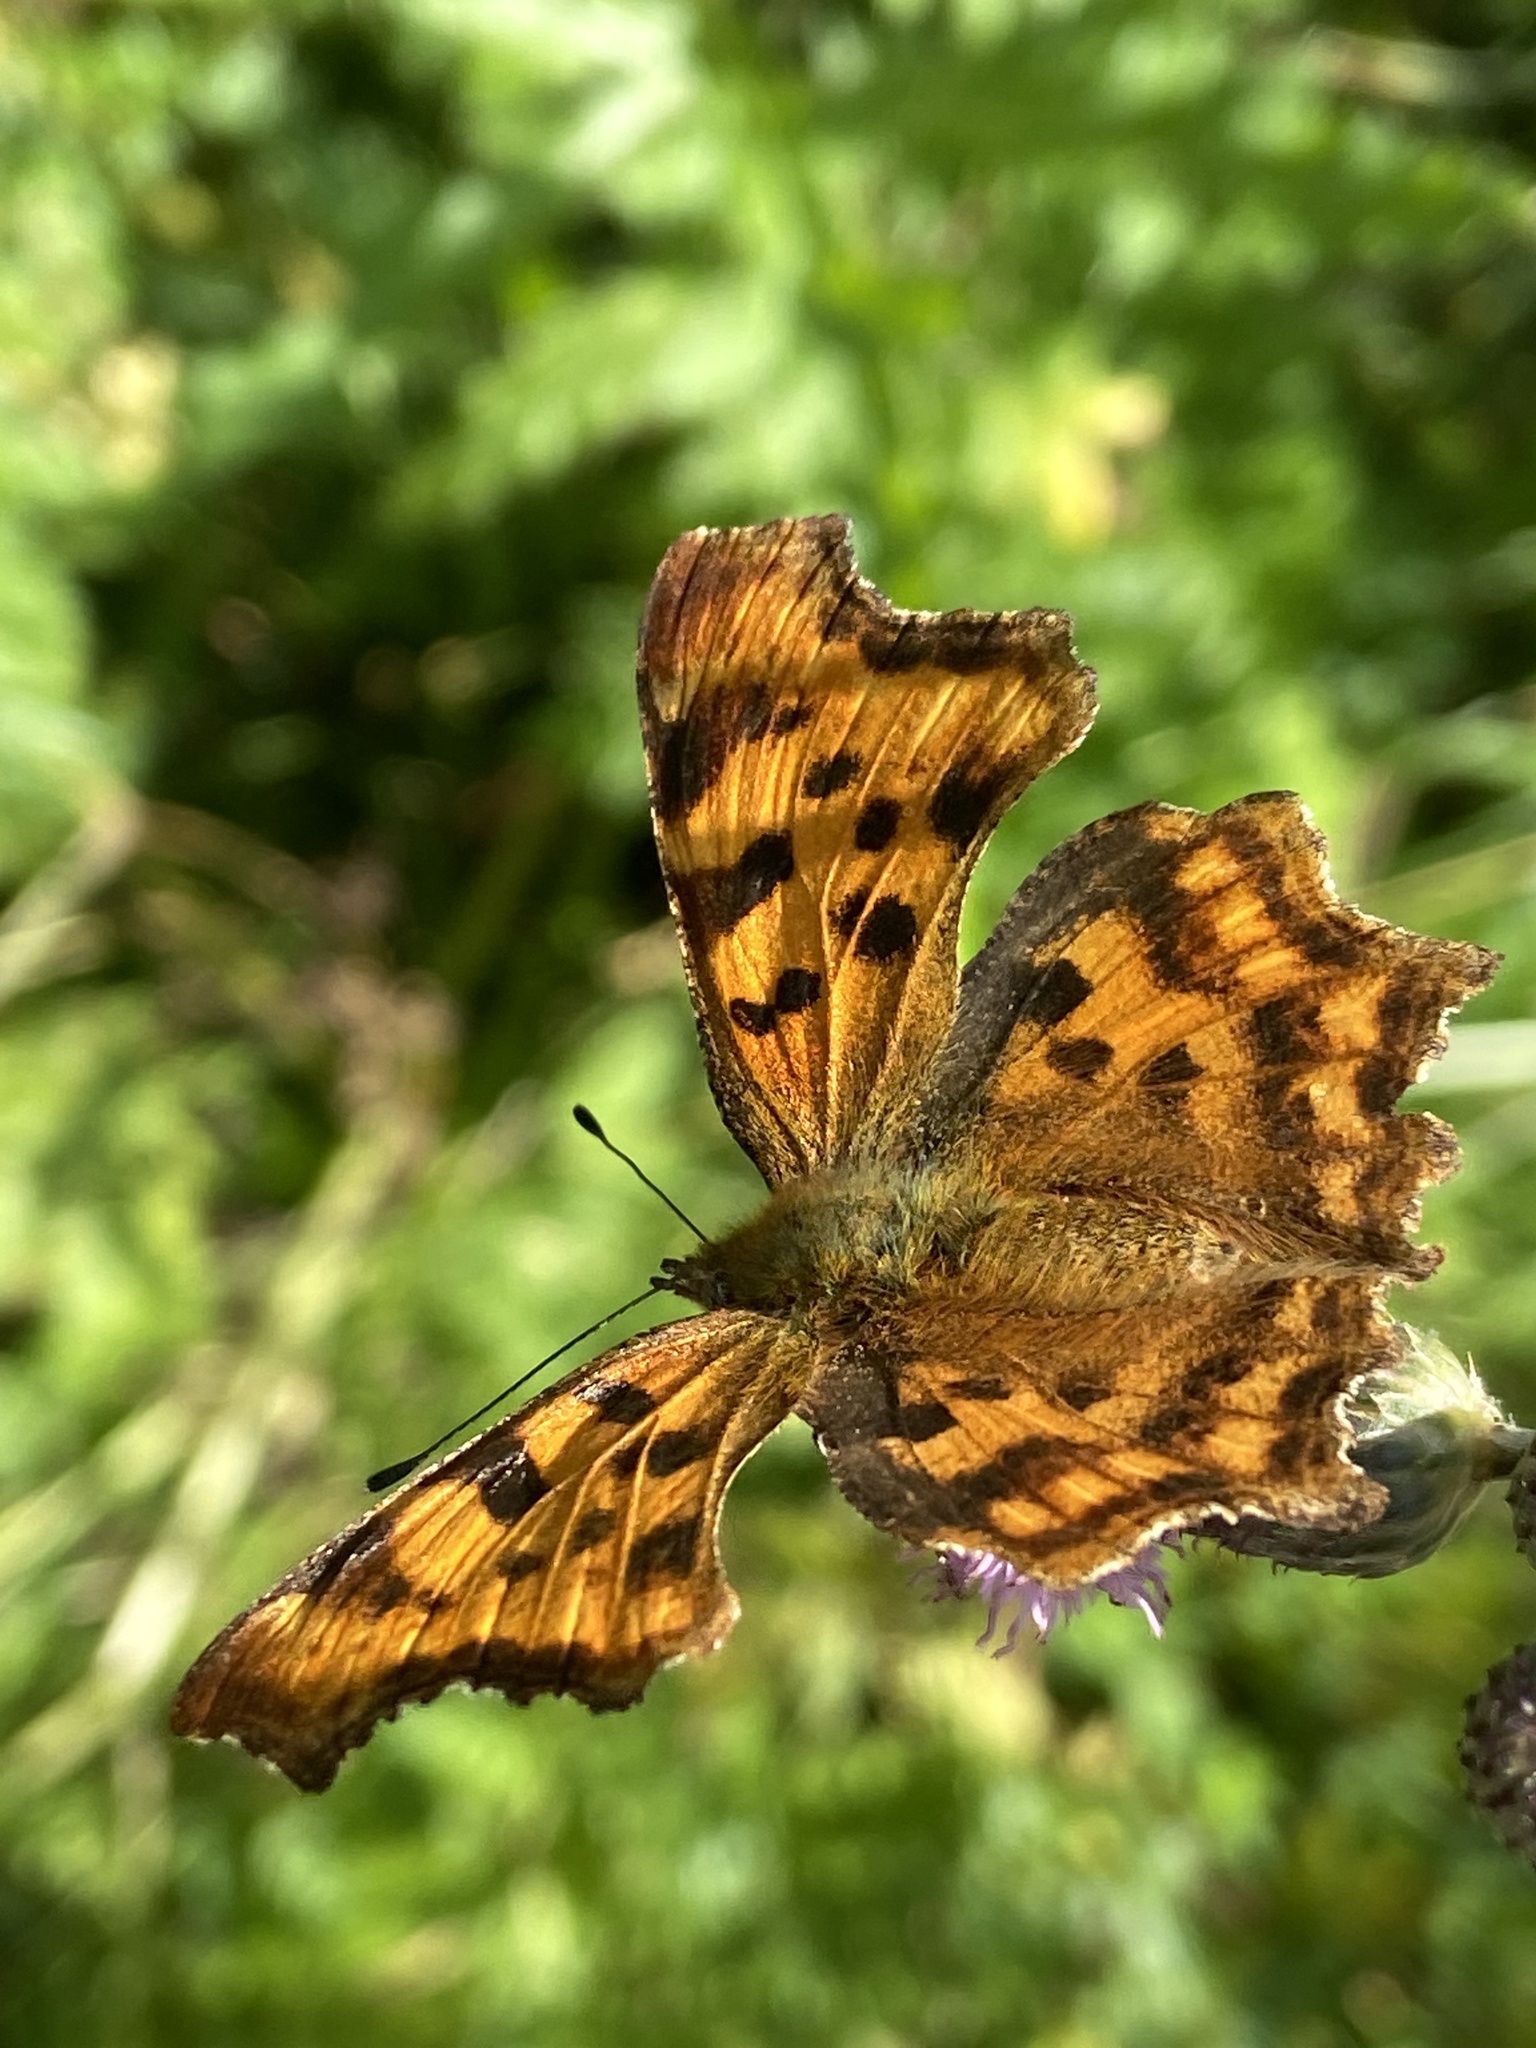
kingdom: Animalia
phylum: Arthropoda
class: Insecta
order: Lepidoptera
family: Nymphalidae
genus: Polygonia
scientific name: Polygonia c-album
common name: Comma
